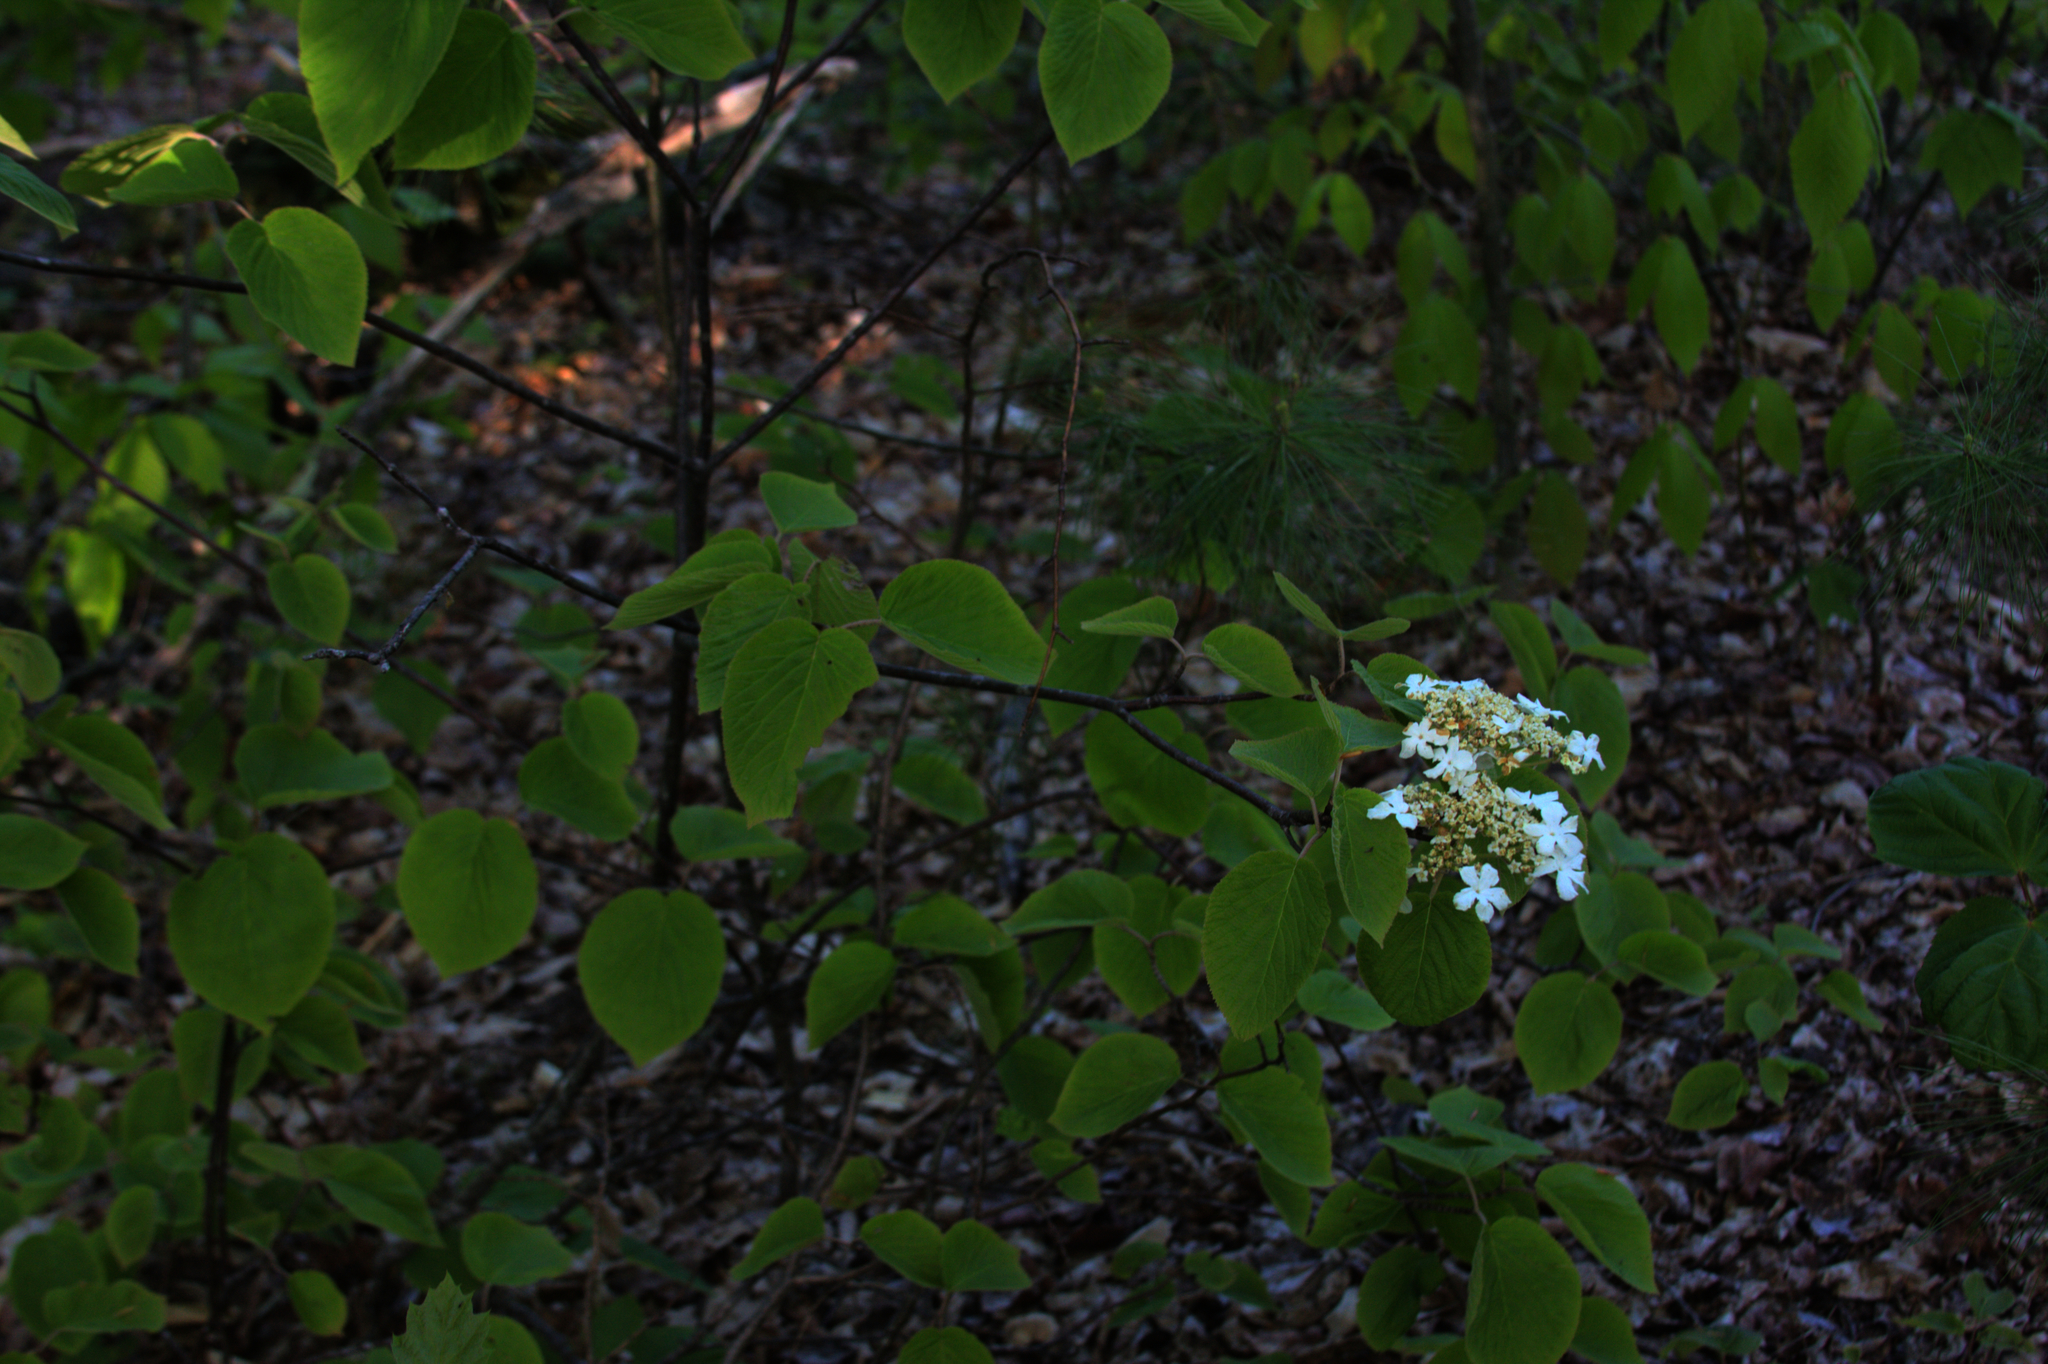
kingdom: Plantae
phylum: Tracheophyta
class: Magnoliopsida
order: Dipsacales
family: Viburnaceae
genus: Viburnum
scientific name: Viburnum lantanoides
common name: Hobblebush
